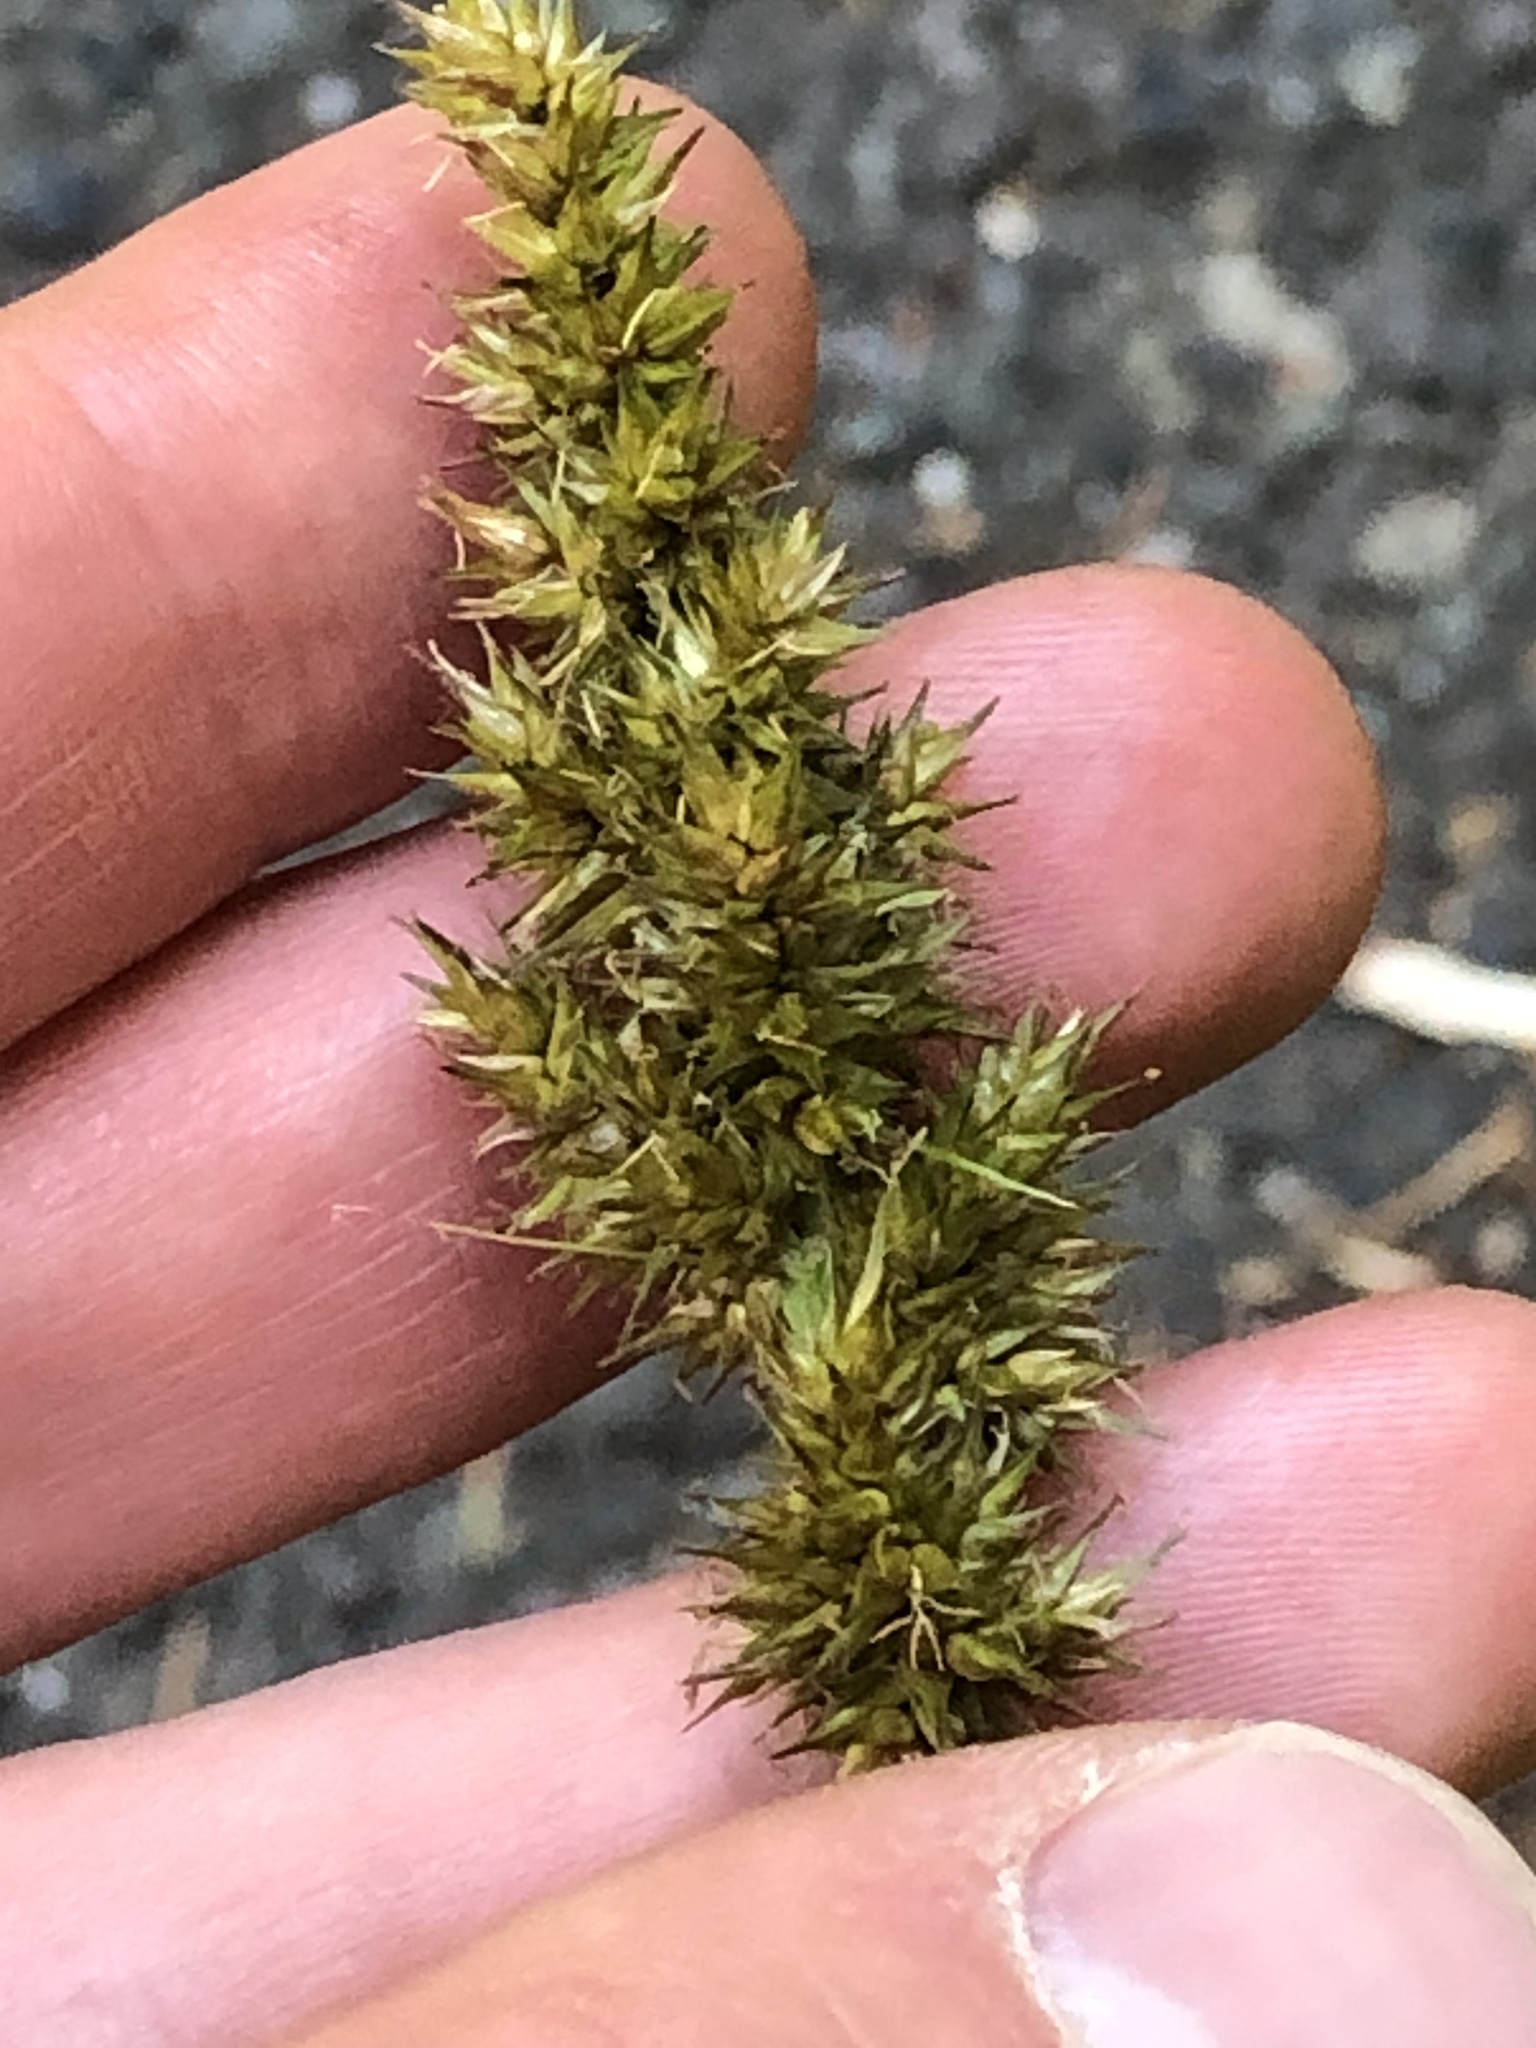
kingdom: Plantae
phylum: Tracheophyta
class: Liliopsida
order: Poales
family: Cyperaceae
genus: Carex
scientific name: Carex stipata
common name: Awl-fruited sedge
